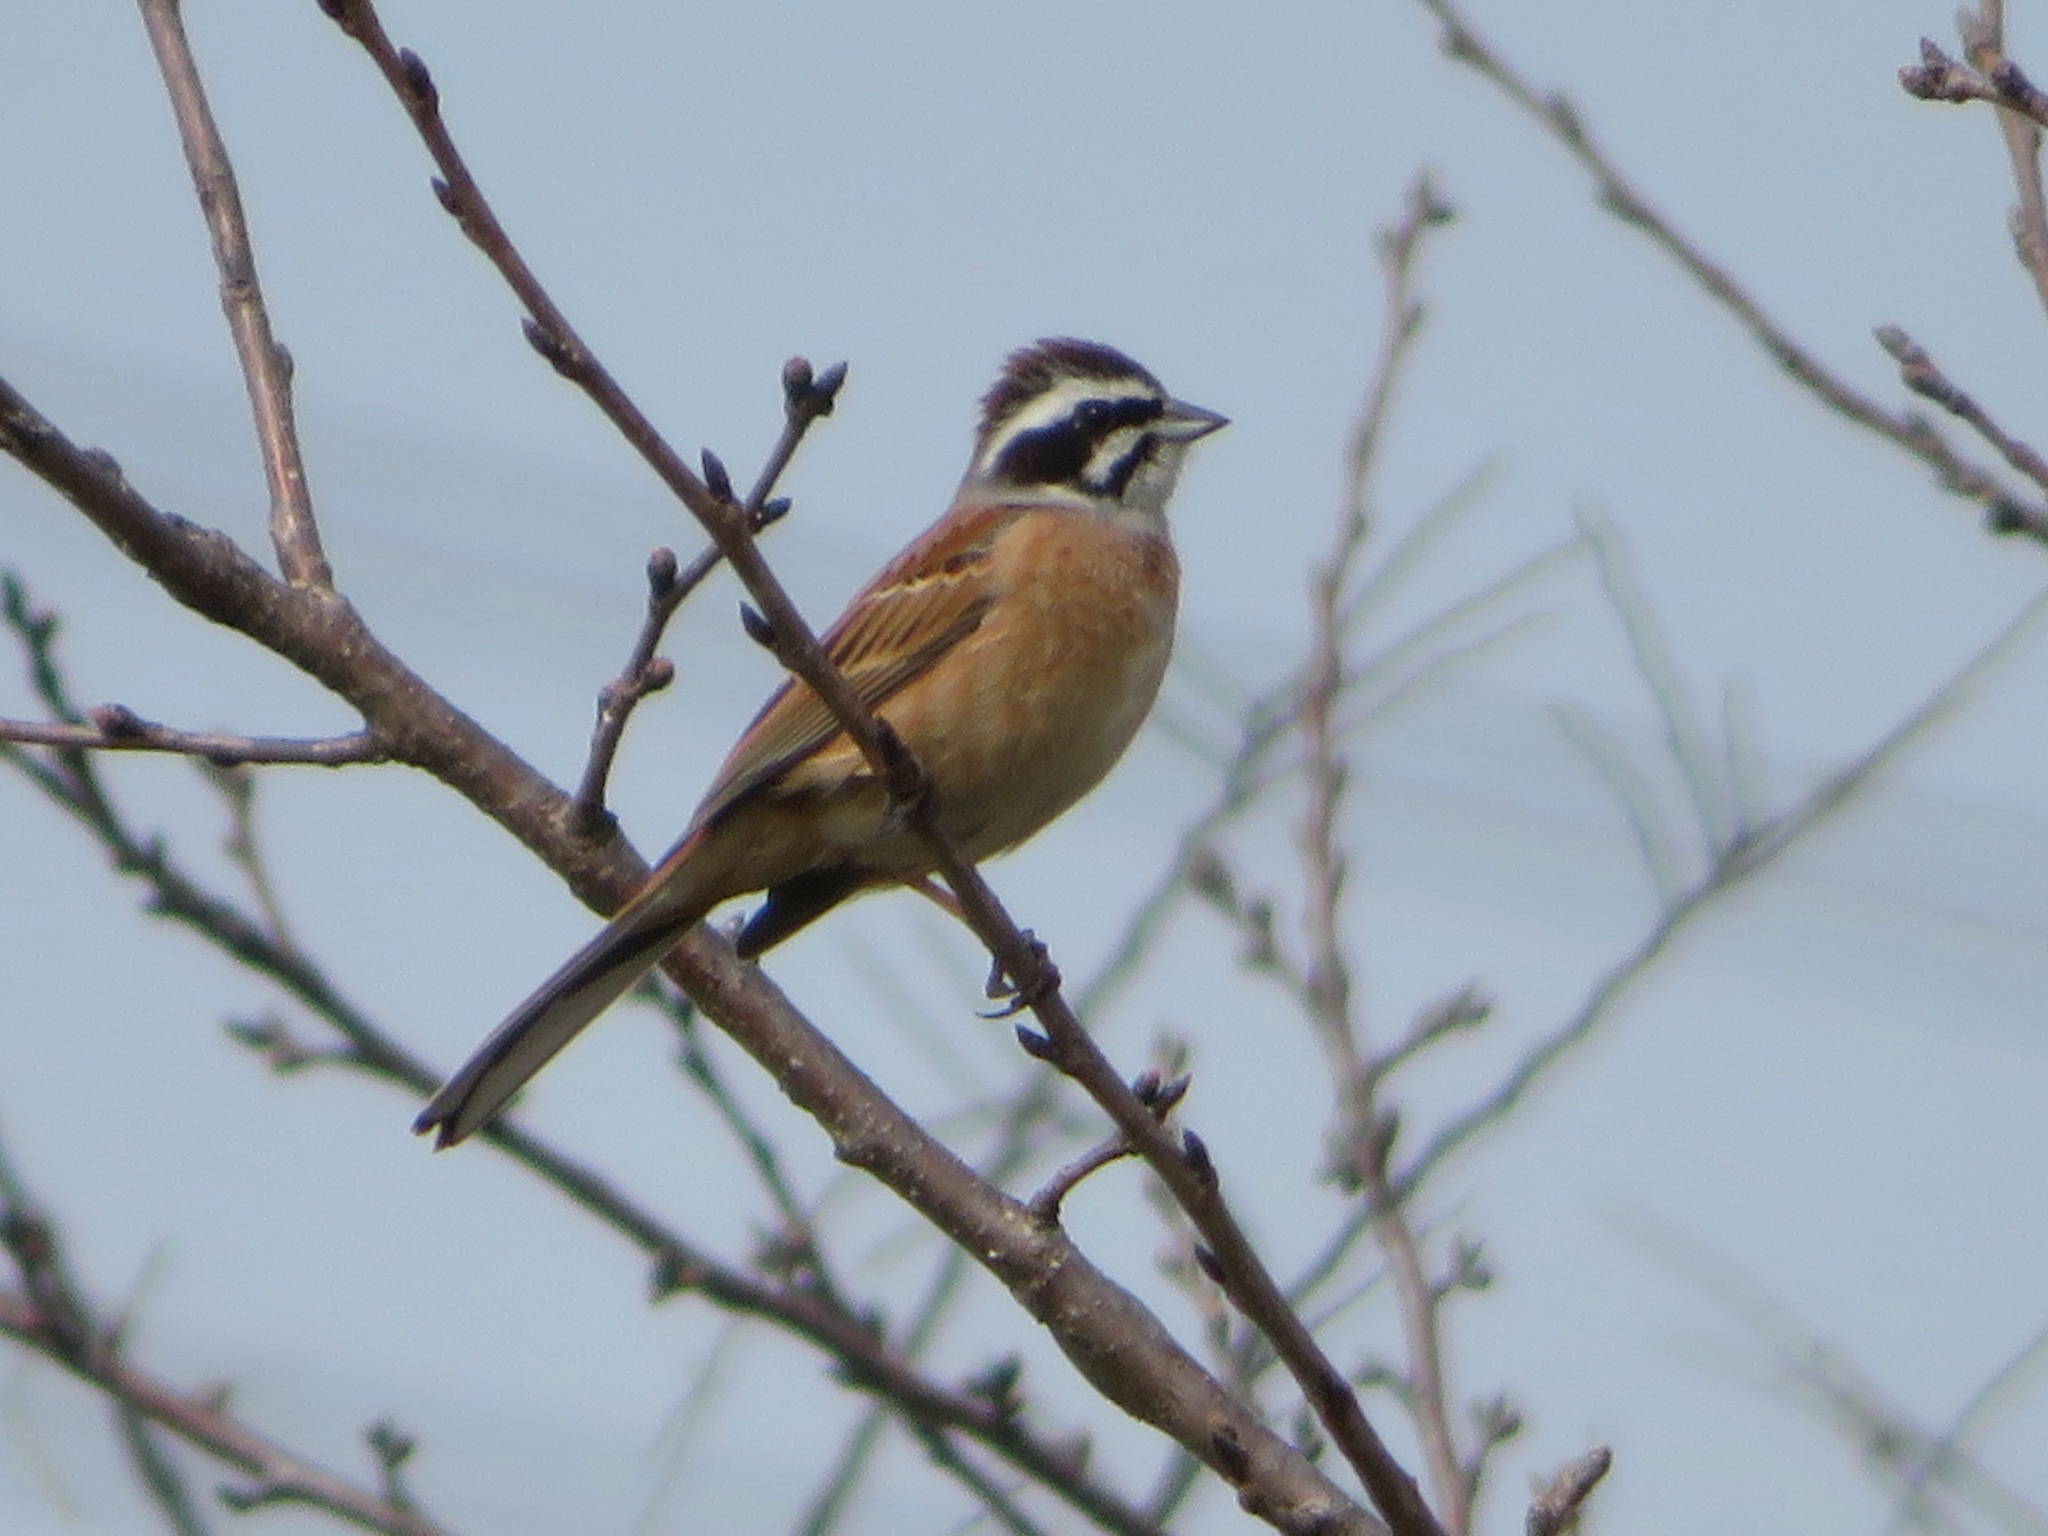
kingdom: Animalia
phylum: Chordata
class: Aves
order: Passeriformes
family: Emberizidae
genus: Emberiza
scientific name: Emberiza cioides
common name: Meadow bunting
